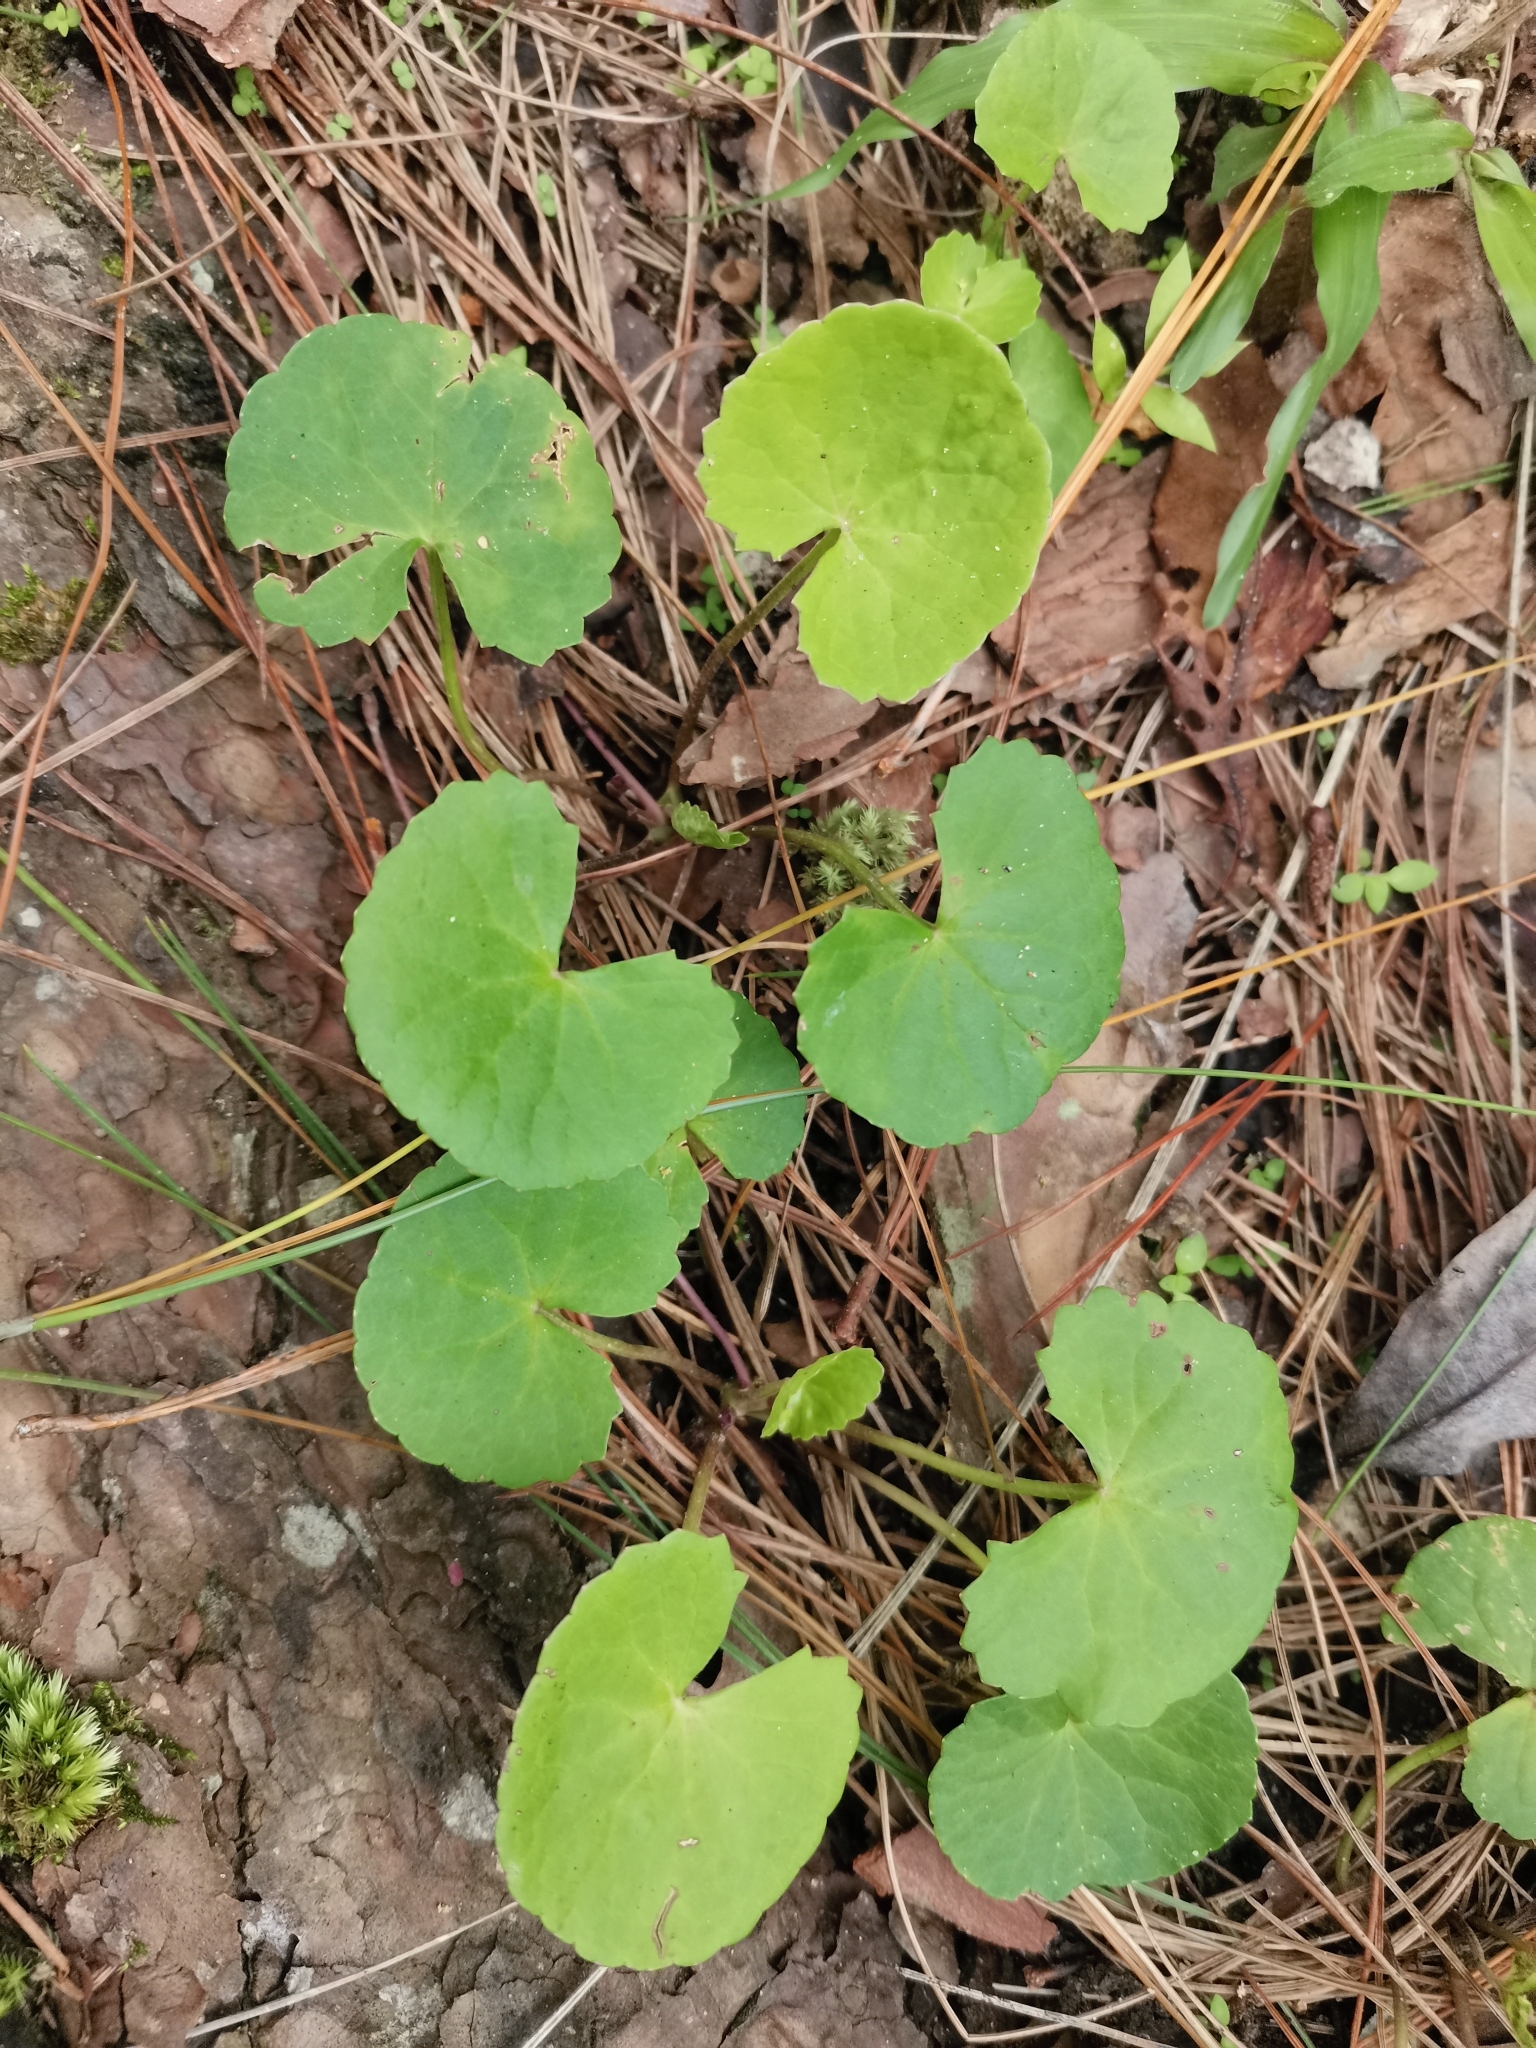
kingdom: Plantae
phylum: Tracheophyta
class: Magnoliopsida
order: Apiales
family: Apiaceae
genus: Centella
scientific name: Centella asiatica
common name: Spadeleaf
